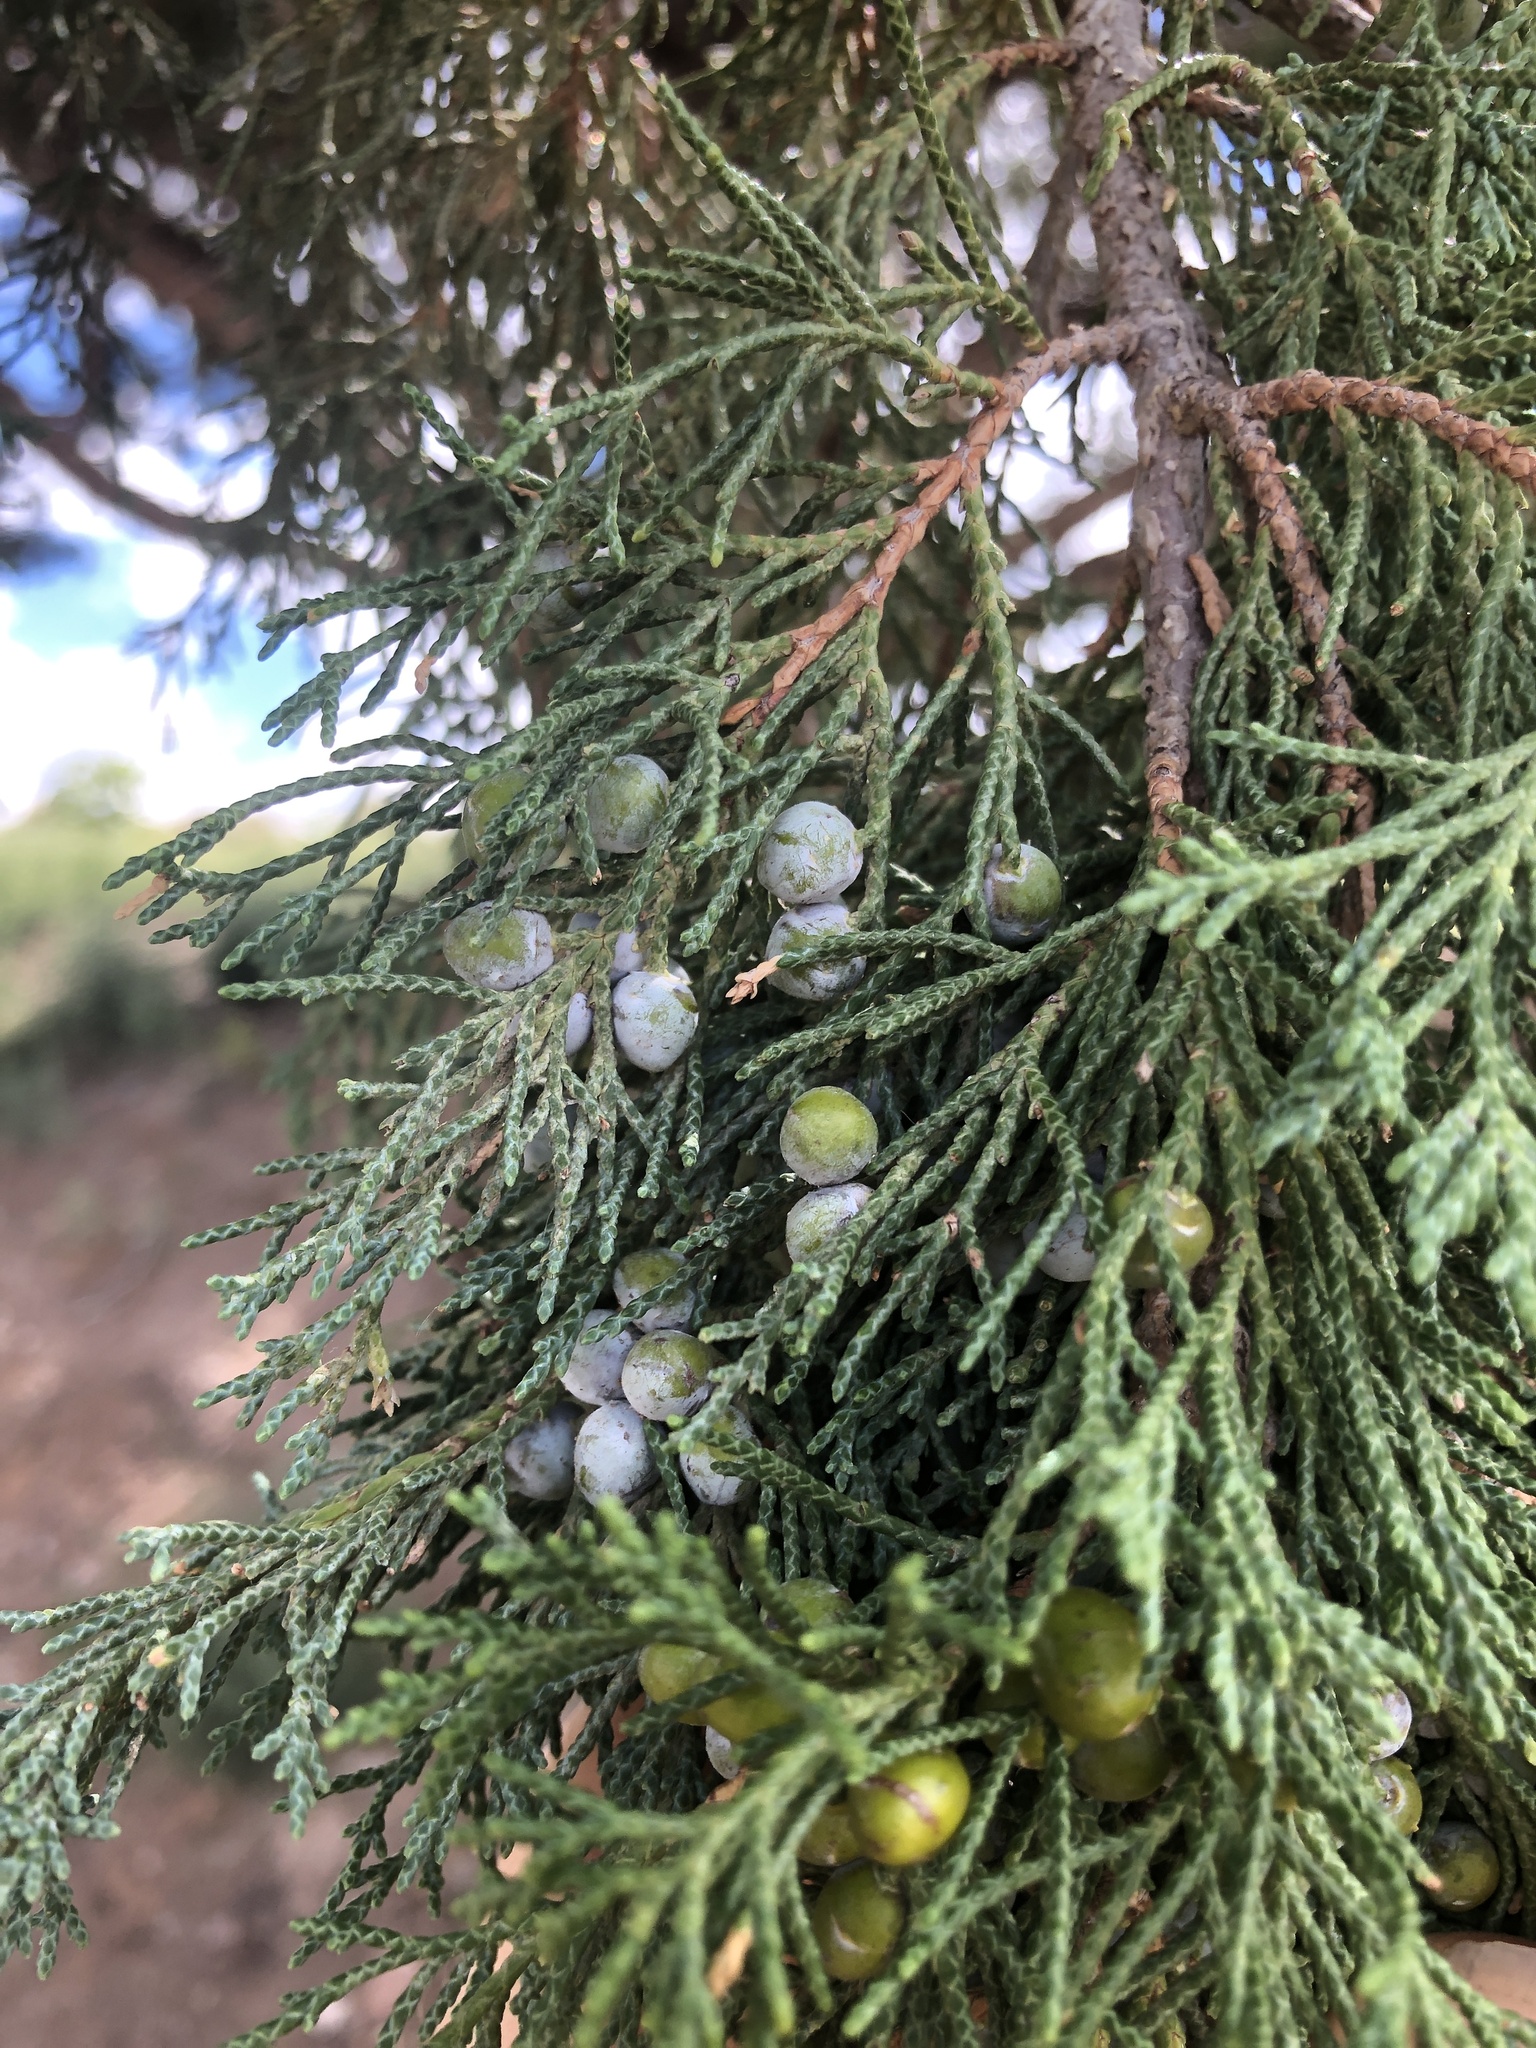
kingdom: Plantae
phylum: Tracheophyta
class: Pinopsida
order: Pinales
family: Cupressaceae
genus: Juniperus
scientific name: Juniperus scopulorum
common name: Rocky mountain juniper
